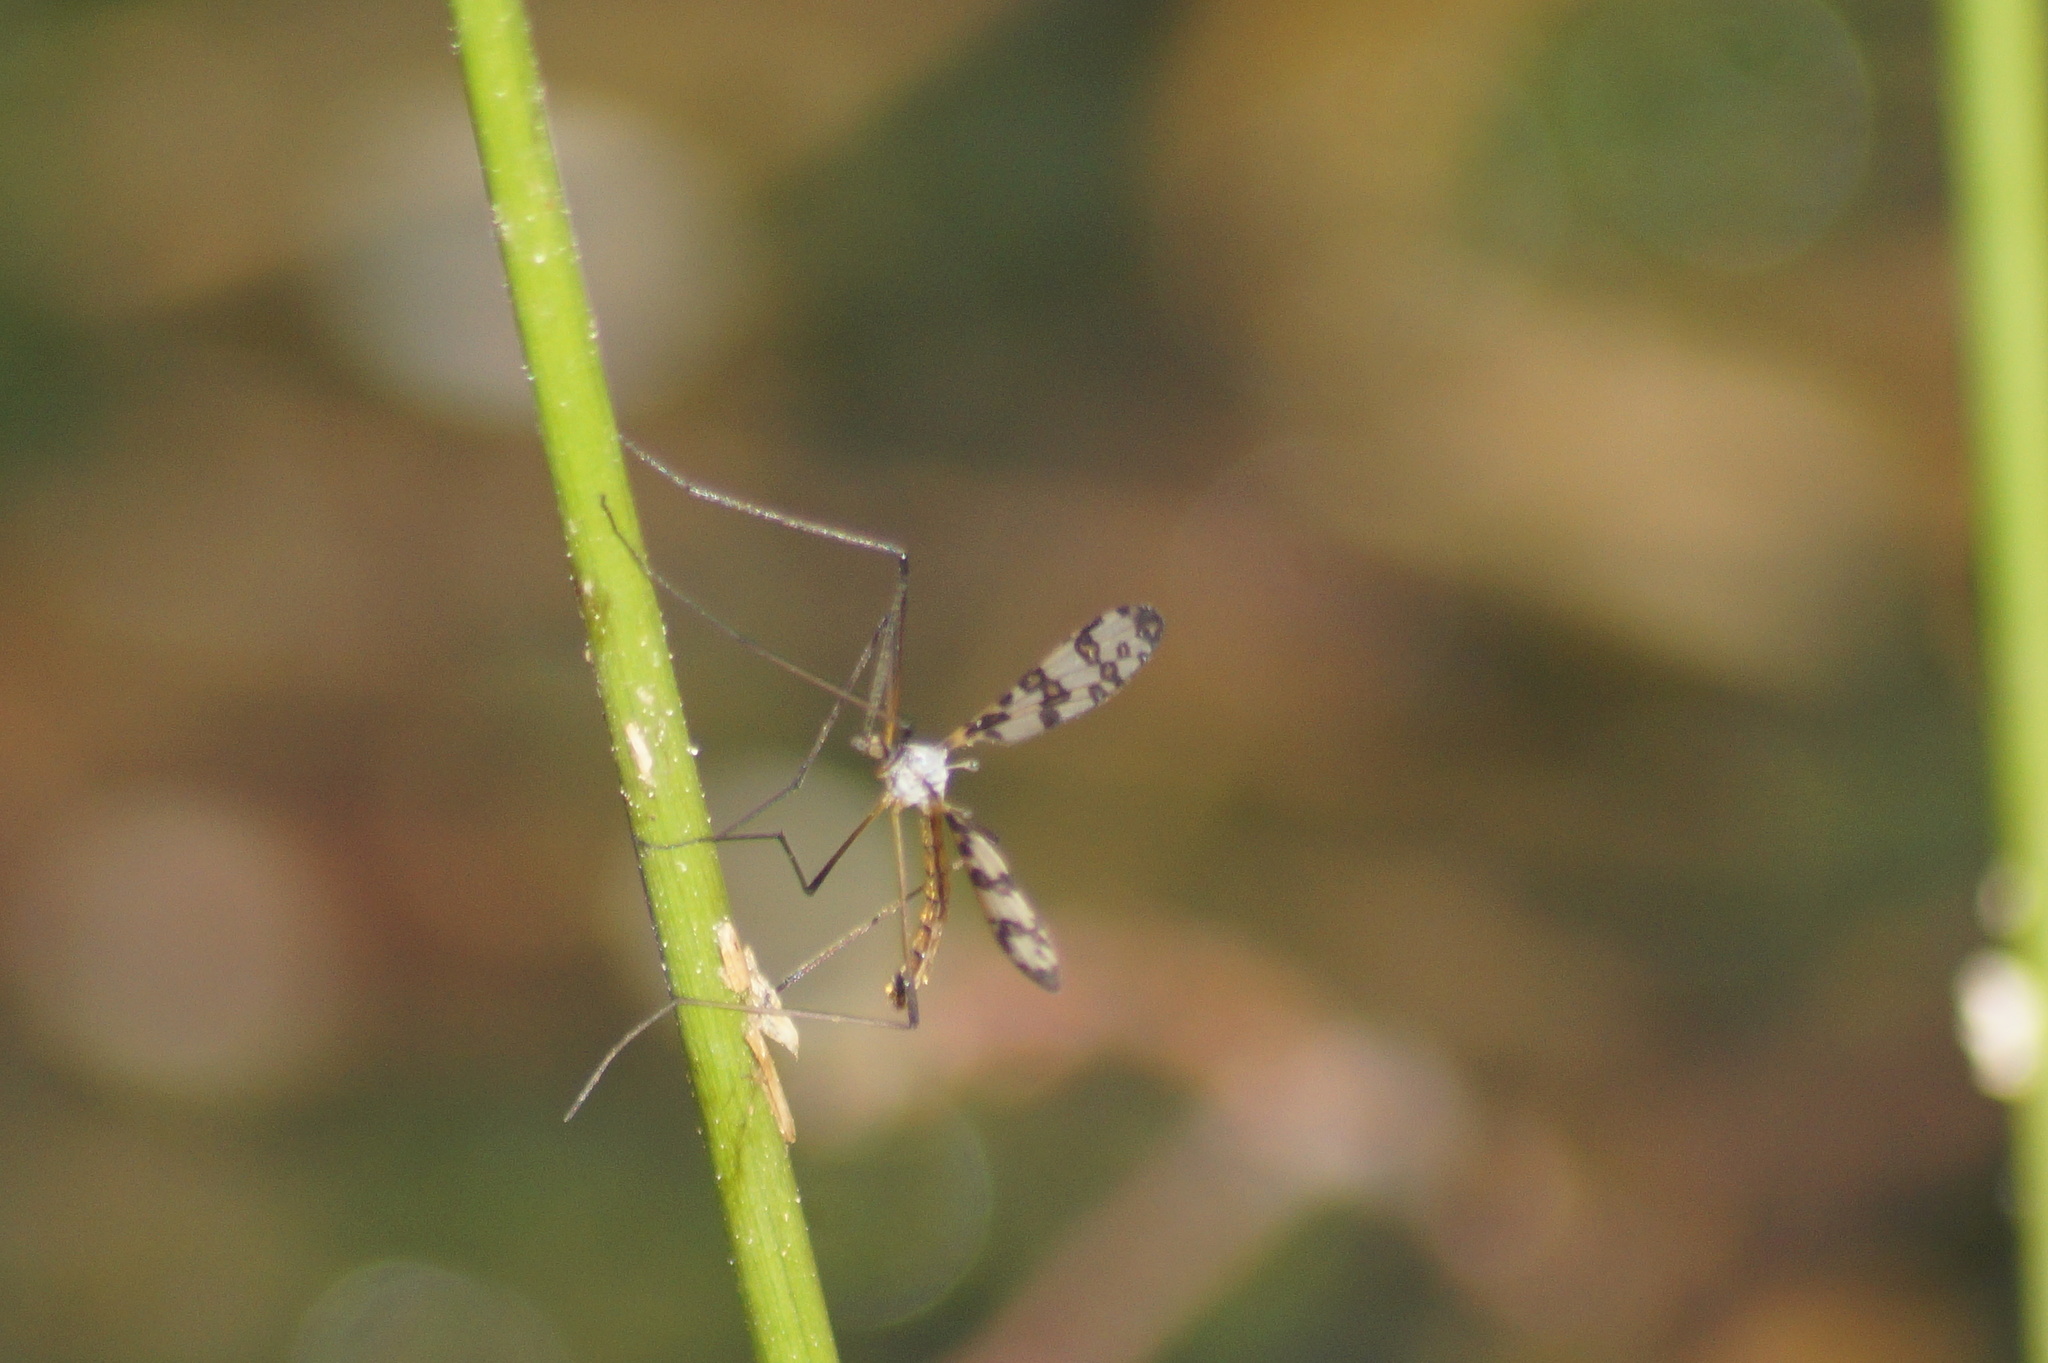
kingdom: Animalia
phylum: Arthropoda
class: Insecta
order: Diptera
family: Limoniidae
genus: Idioptera
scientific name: Idioptera linnei
